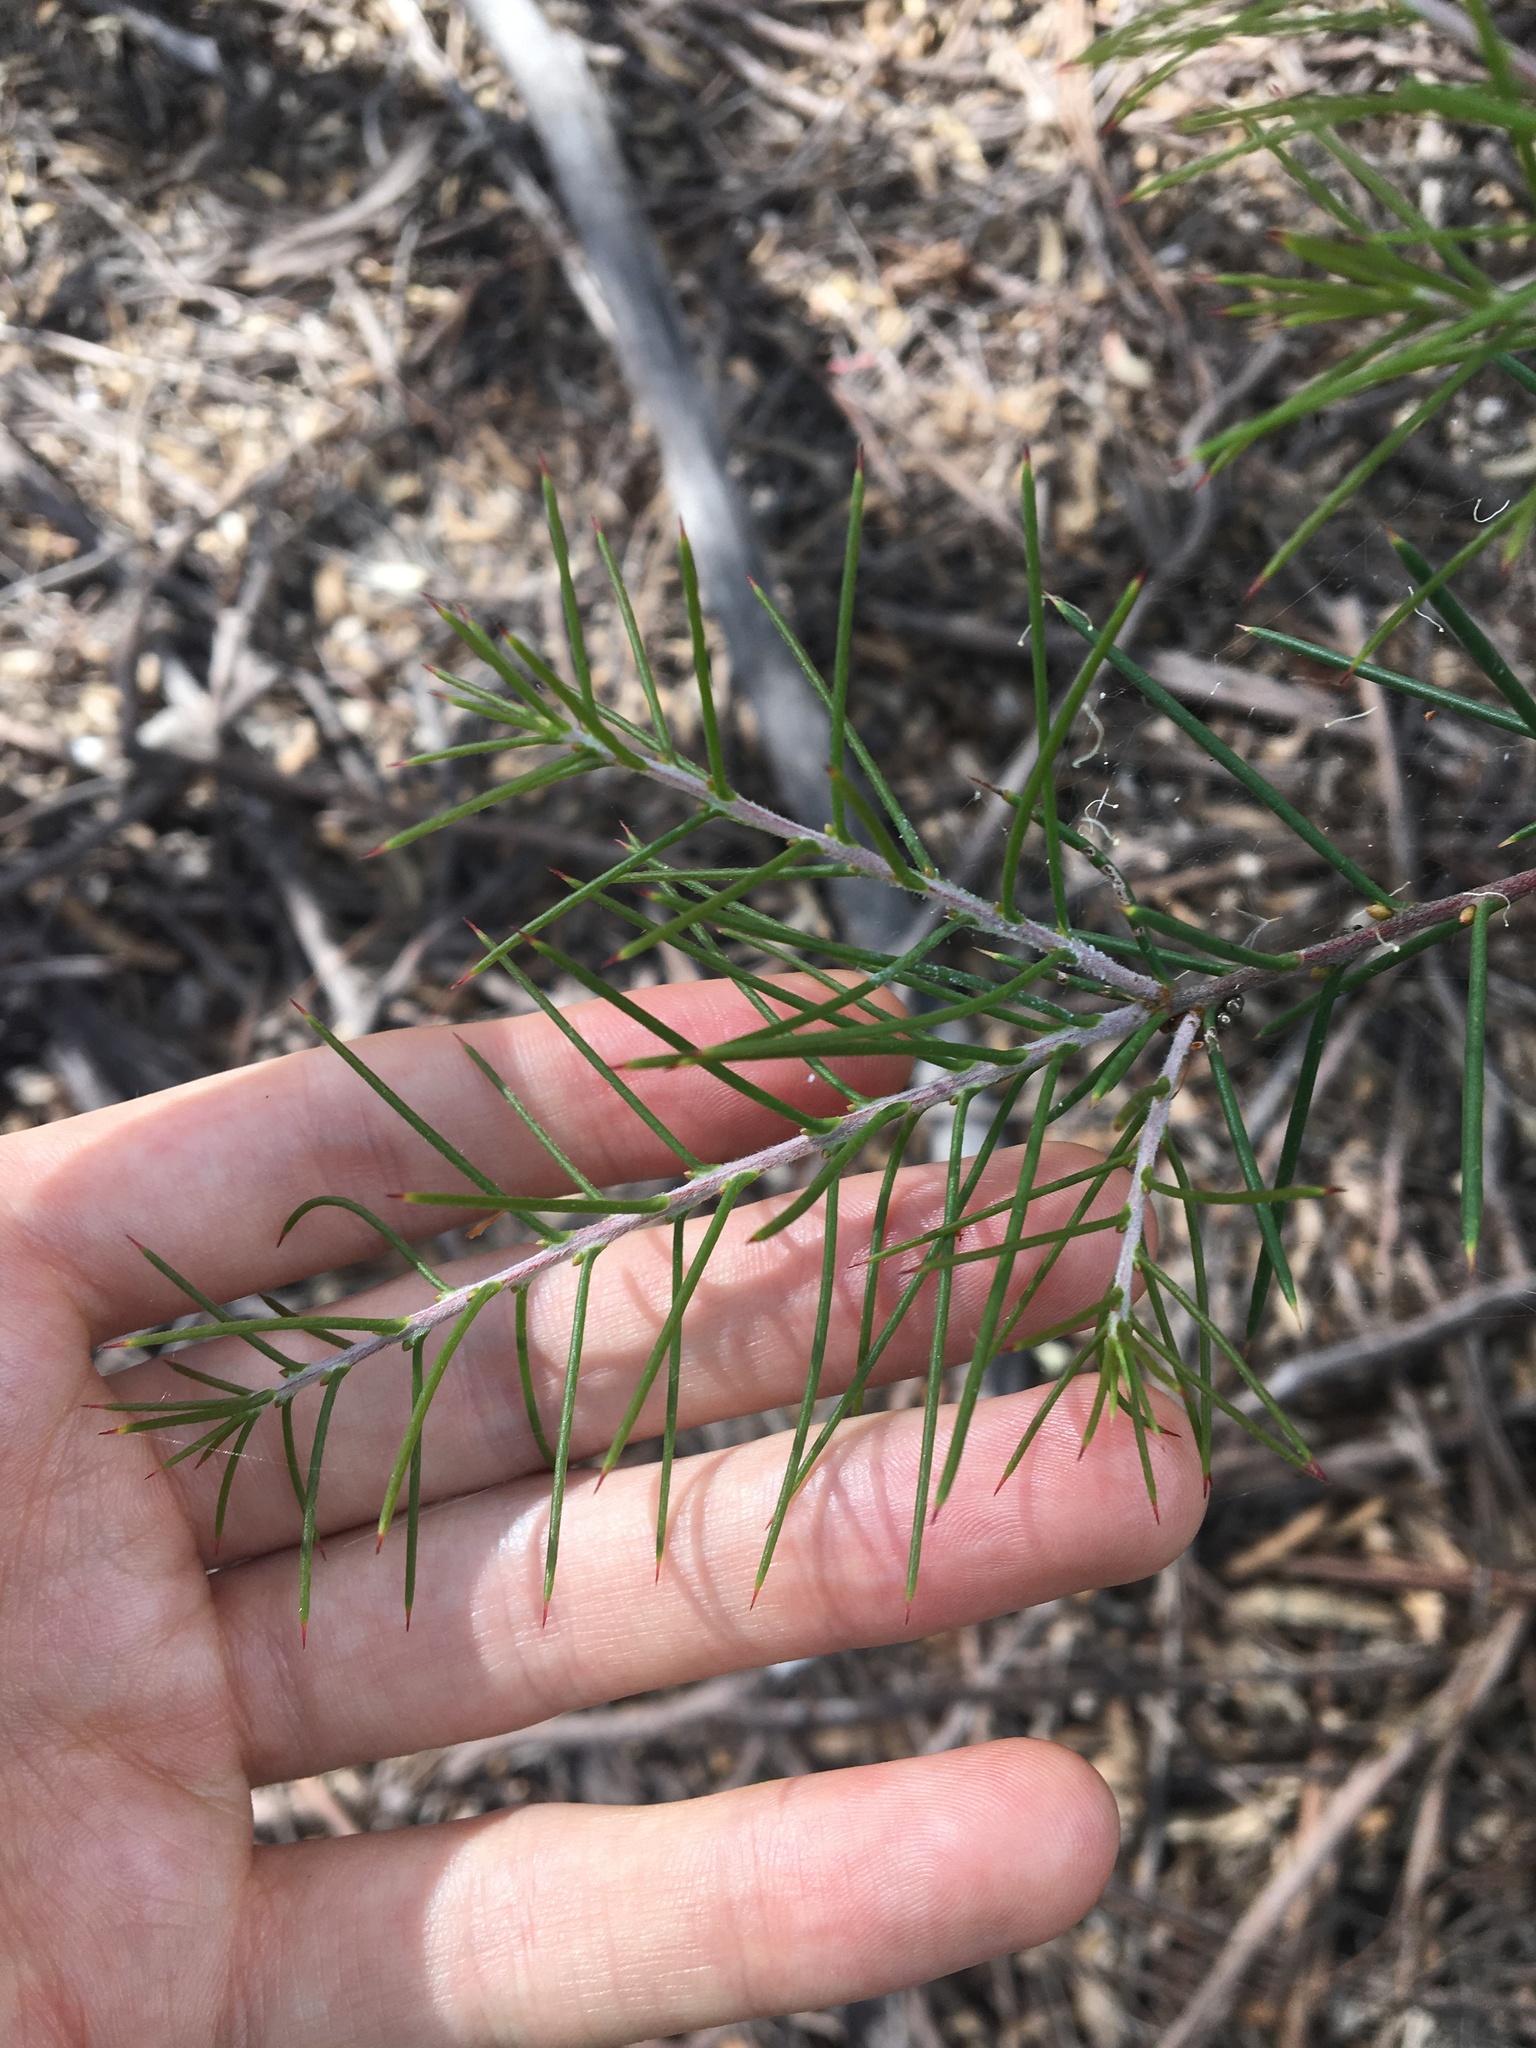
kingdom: Plantae
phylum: Tracheophyta
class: Magnoliopsida
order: Proteales
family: Proteaceae
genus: Hakea
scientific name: Hakea sericea
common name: Needle bush
